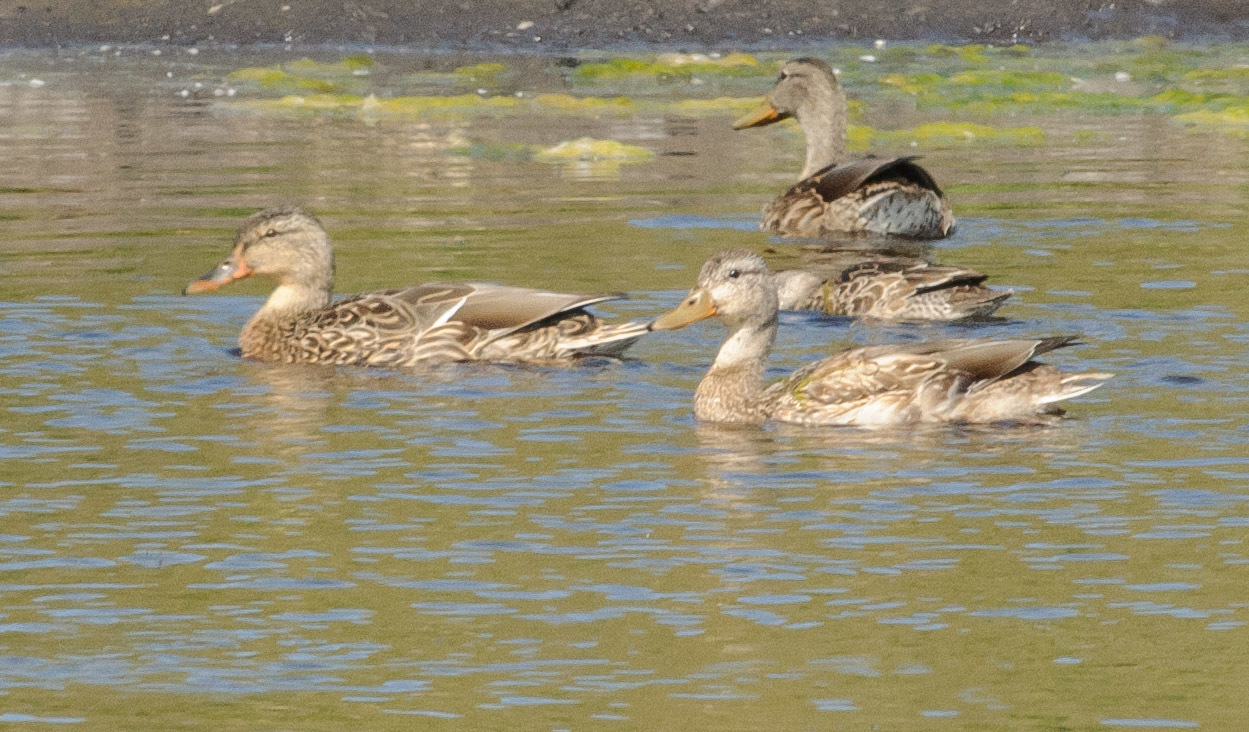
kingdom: Animalia
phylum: Chordata
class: Aves
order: Anseriformes
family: Anatidae
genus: Anas
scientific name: Anas platyrhynchos
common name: Mallard
